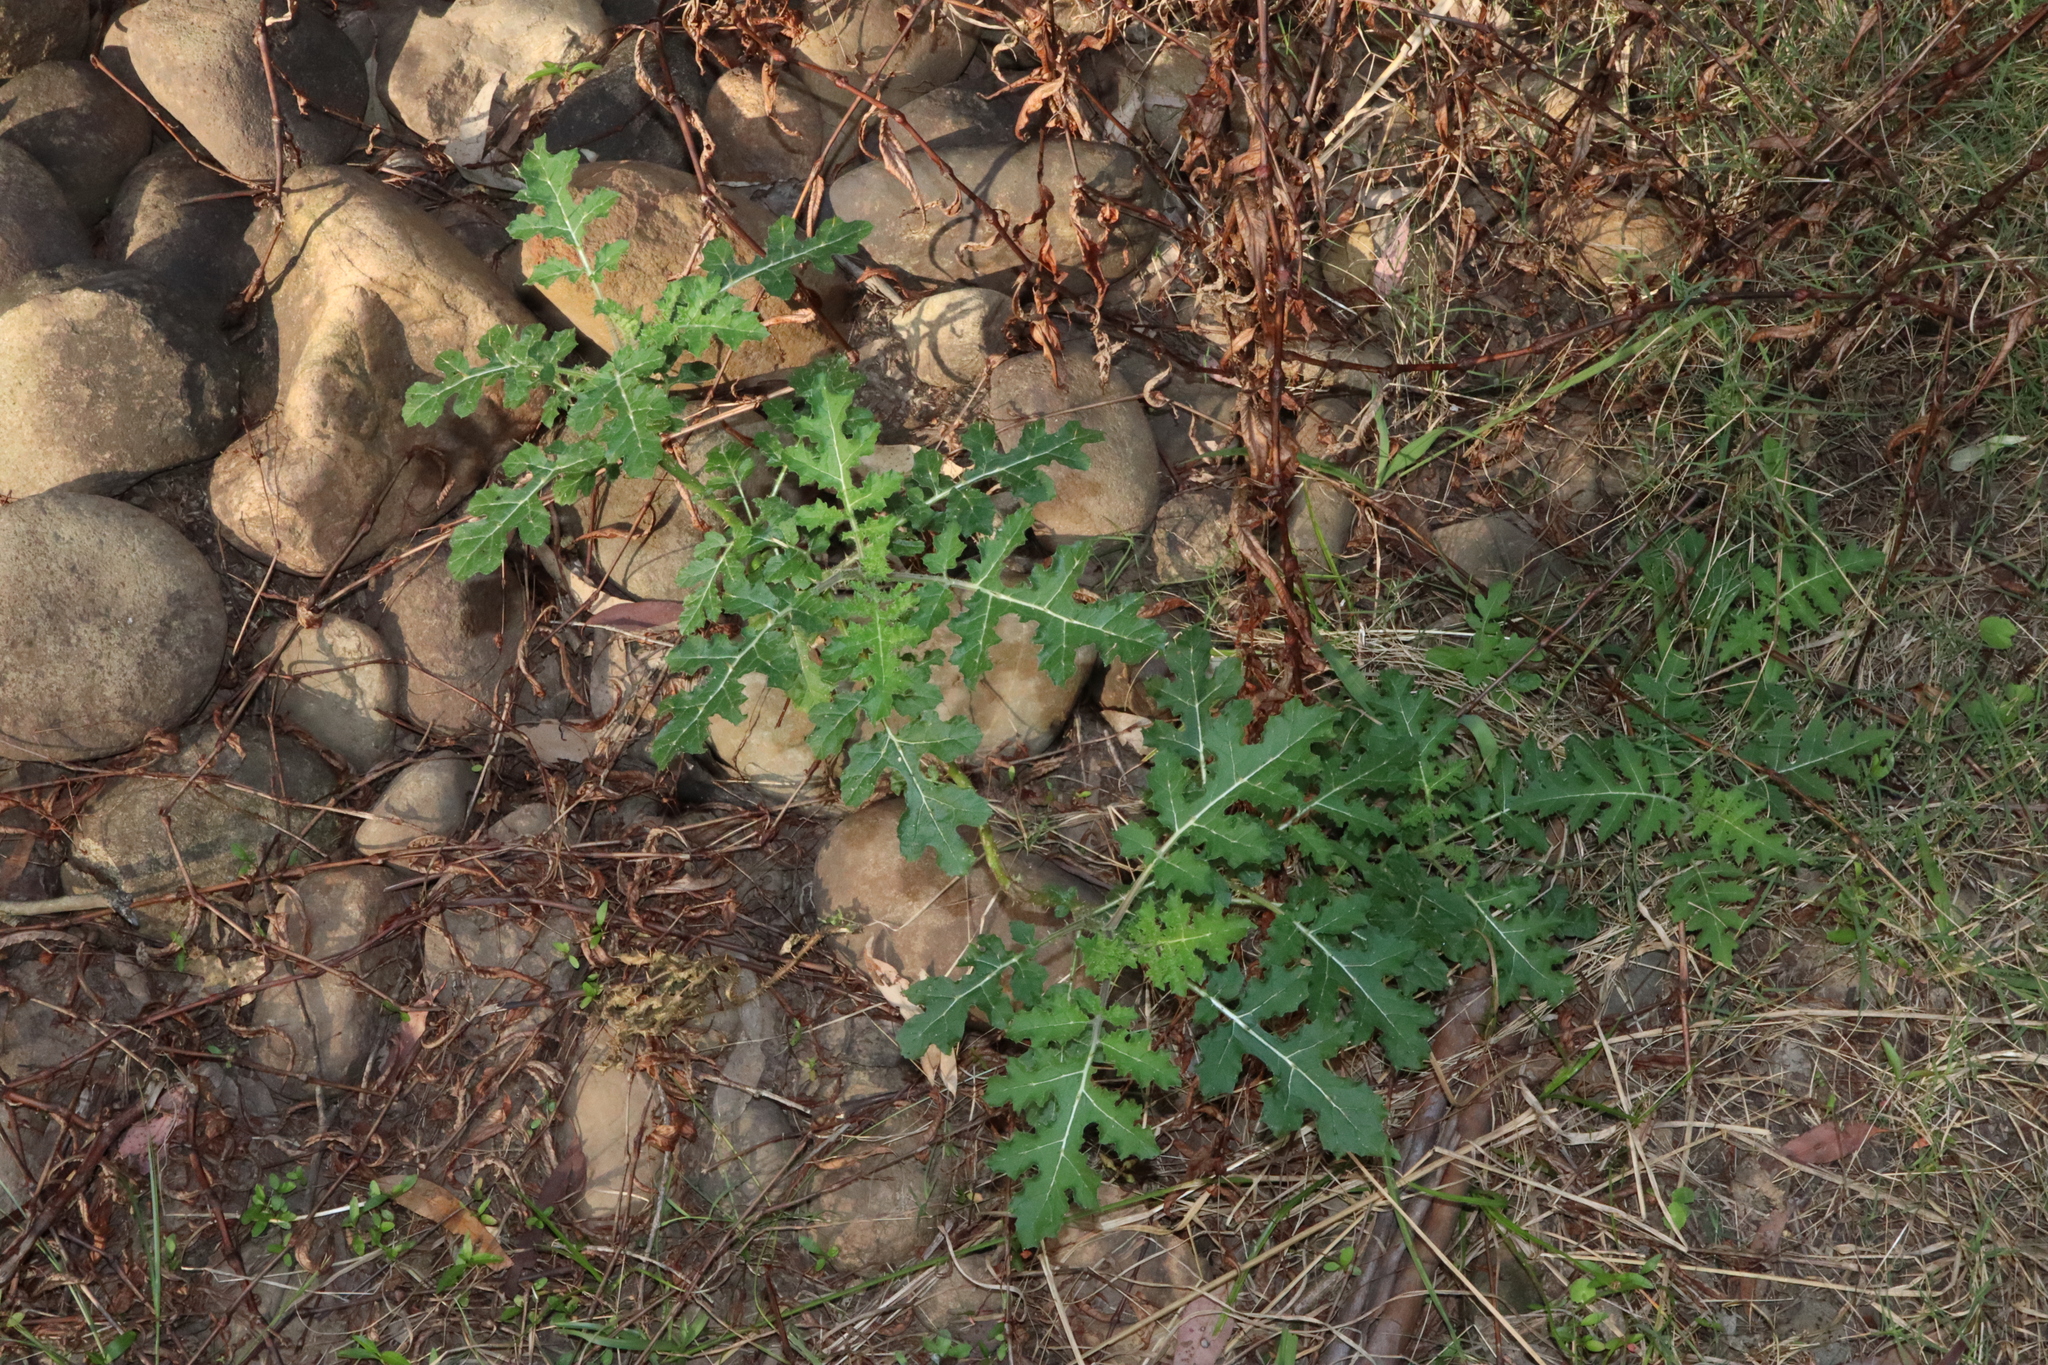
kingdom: Plantae
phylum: Tracheophyta
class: Magnoliopsida
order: Solanales
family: Solanaceae
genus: Solanum
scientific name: Solanum sisymbriifolium
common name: Red buffalo-bur
